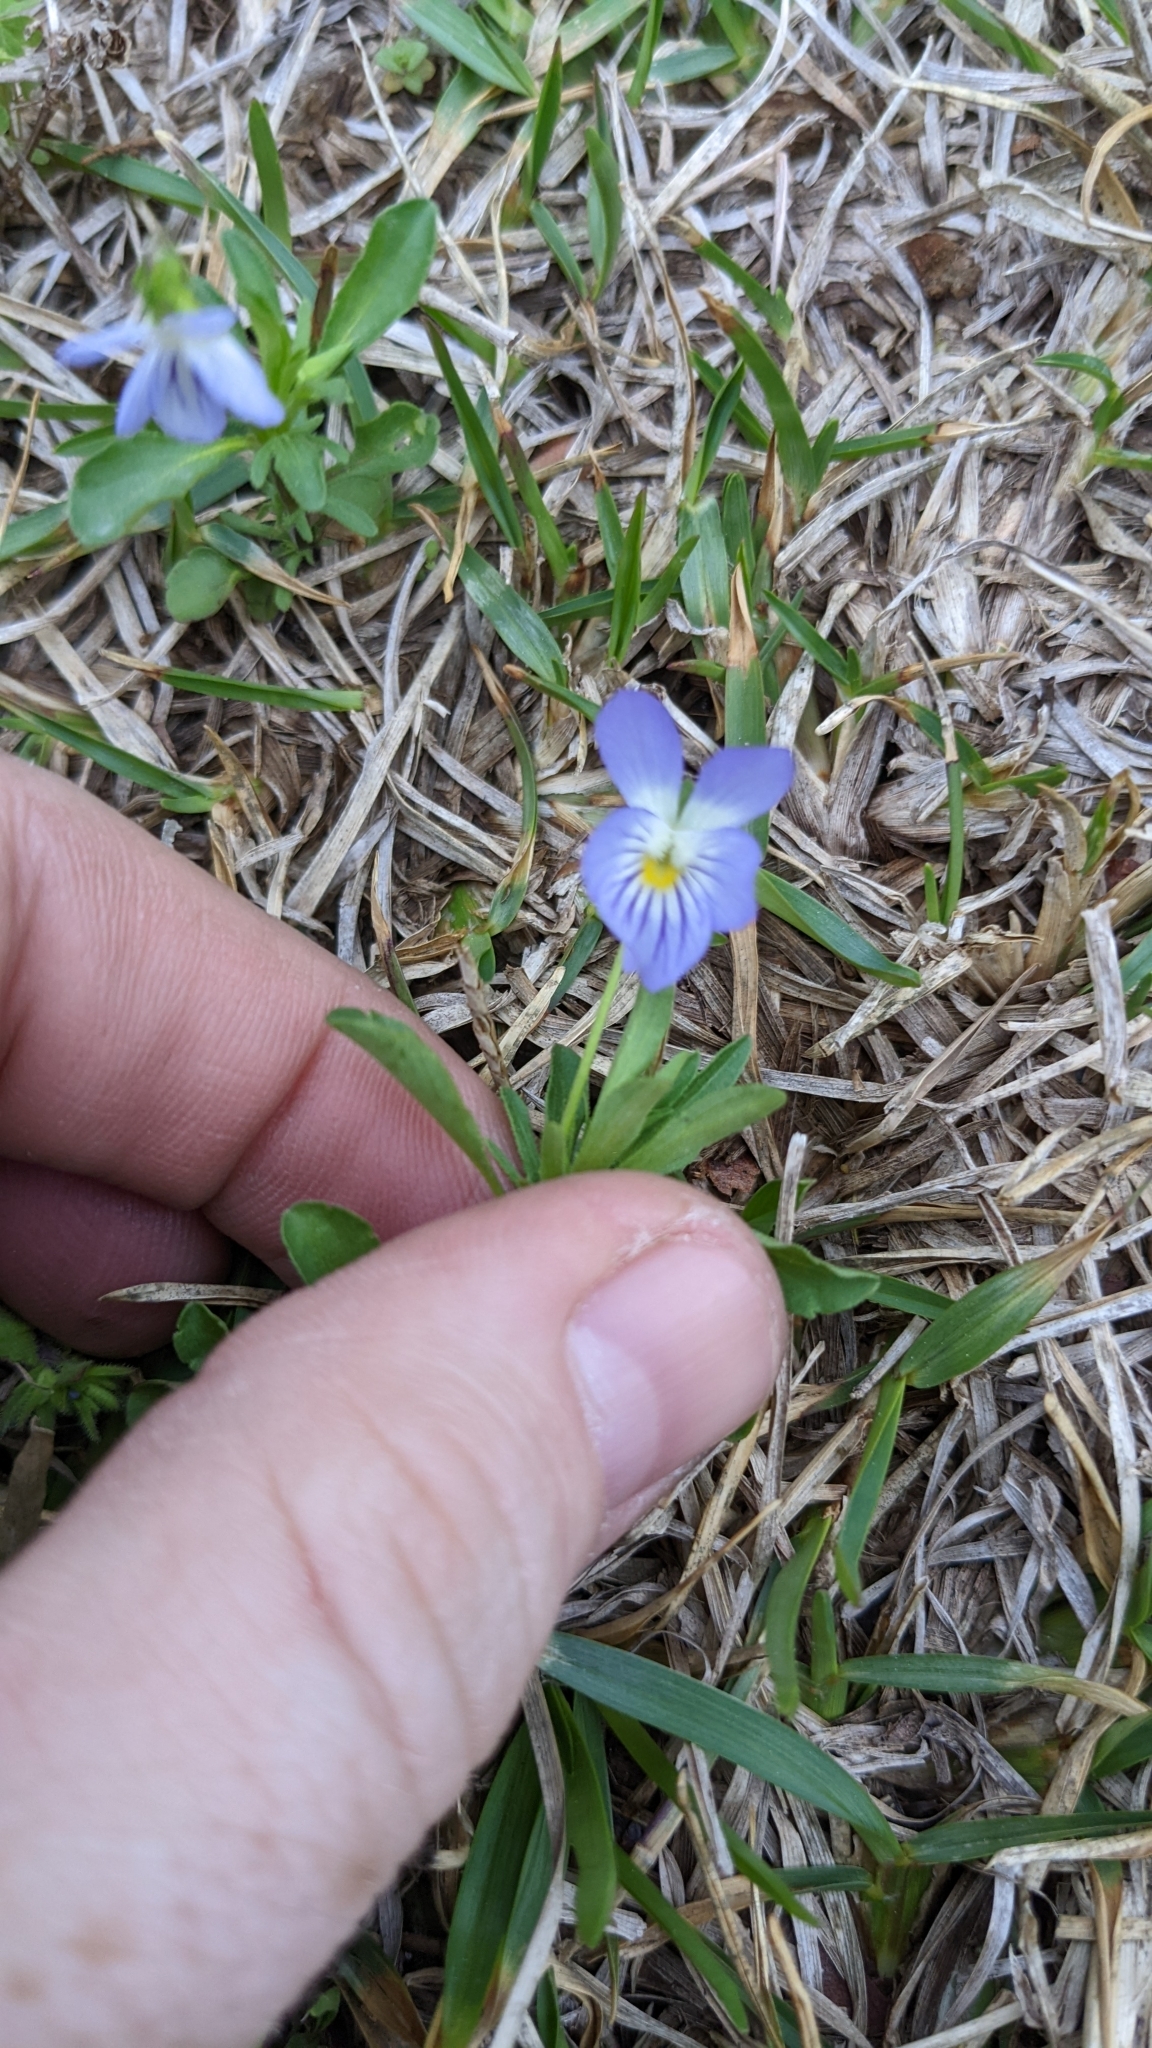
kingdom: Plantae
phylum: Tracheophyta
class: Magnoliopsida
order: Malpighiales
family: Violaceae
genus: Viola
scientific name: Viola rafinesquei
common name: American field pansy
